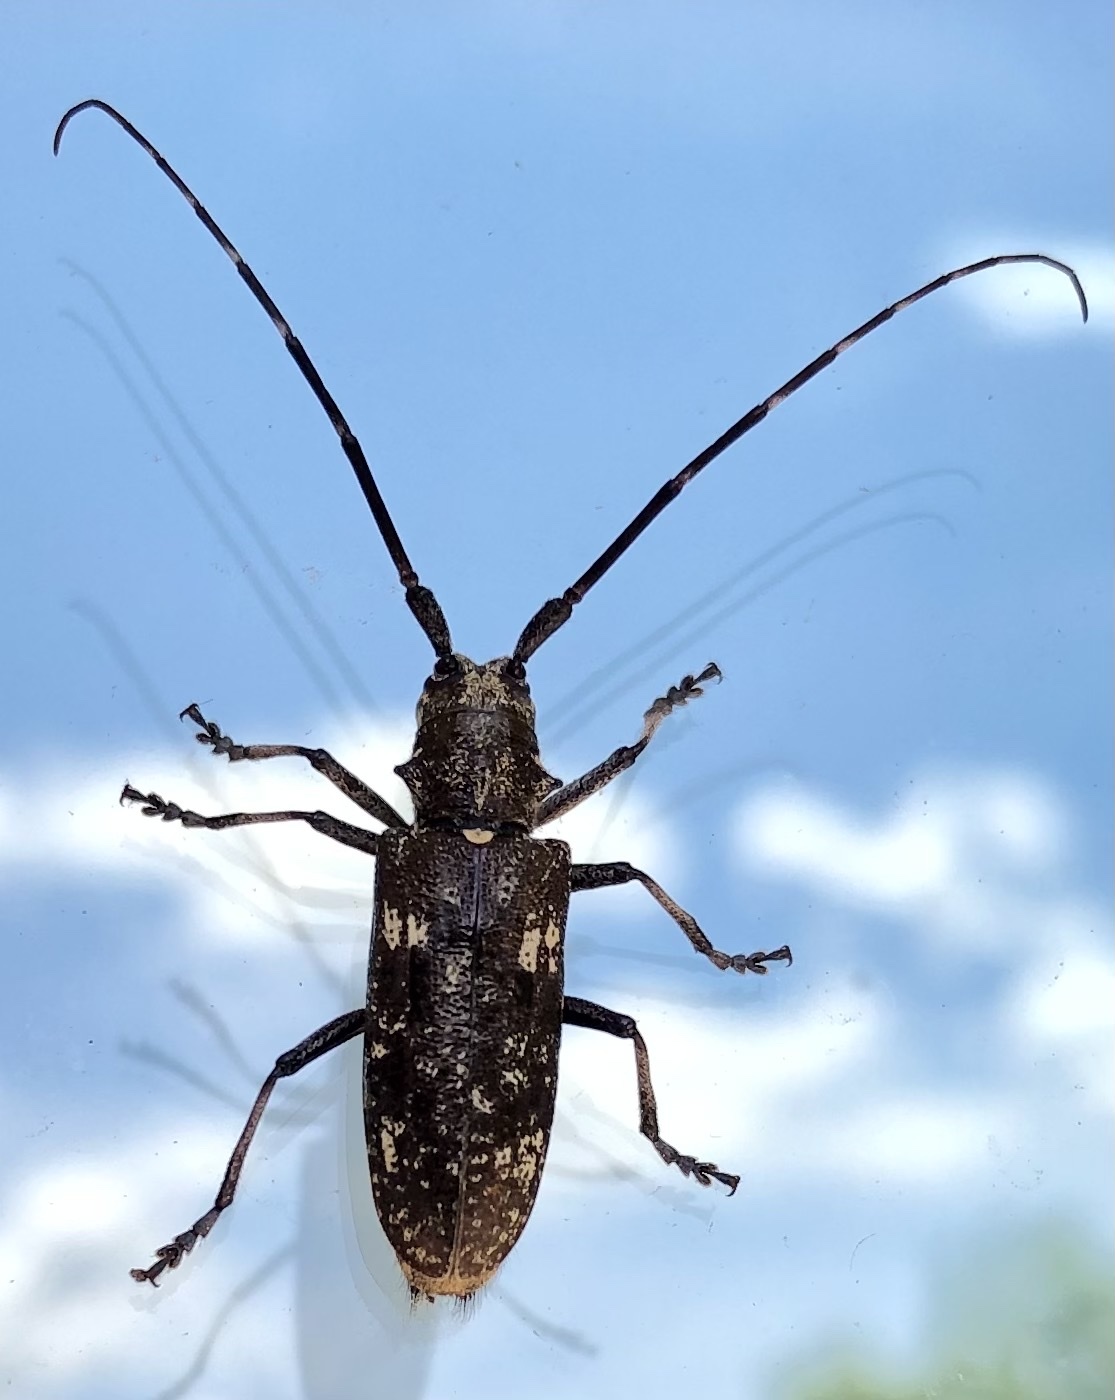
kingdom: Animalia
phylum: Arthropoda
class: Insecta
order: Coleoptera
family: Cerambycidae
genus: Monochamus
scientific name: Monochamus scutellatus
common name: White-spotted sawyer beetle
